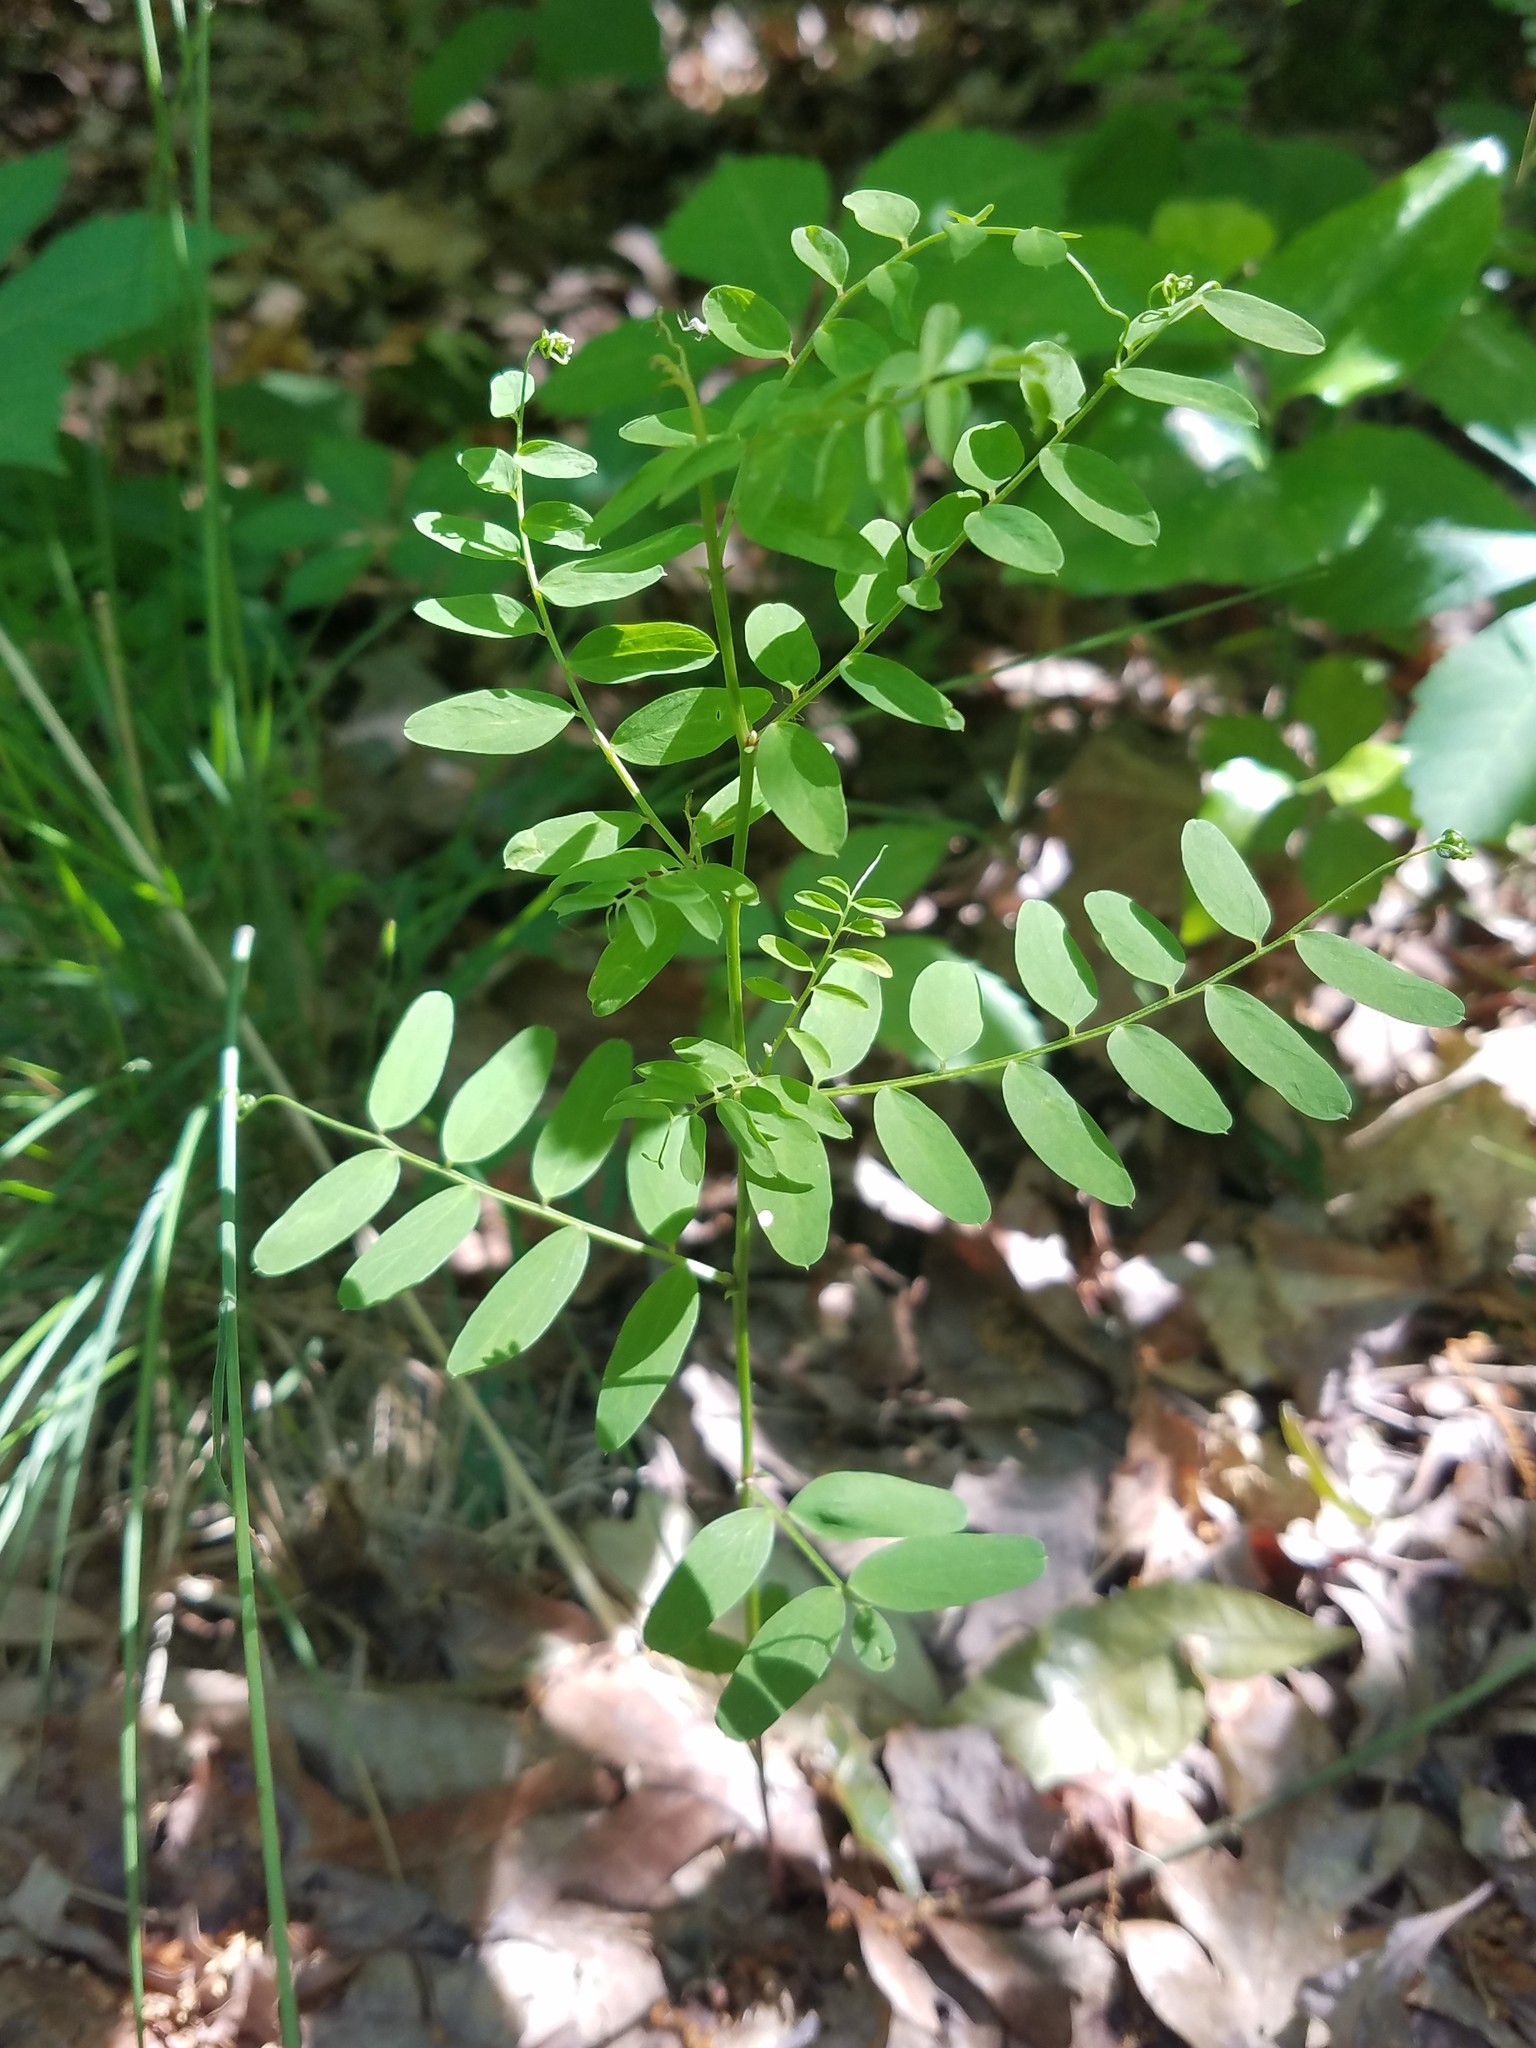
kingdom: Plantae
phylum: Tracheophyta
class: Magnoliopsida
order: Fabales
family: Fabaceae
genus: Vicia
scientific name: Vicia caroliniana
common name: Carolina vetch
